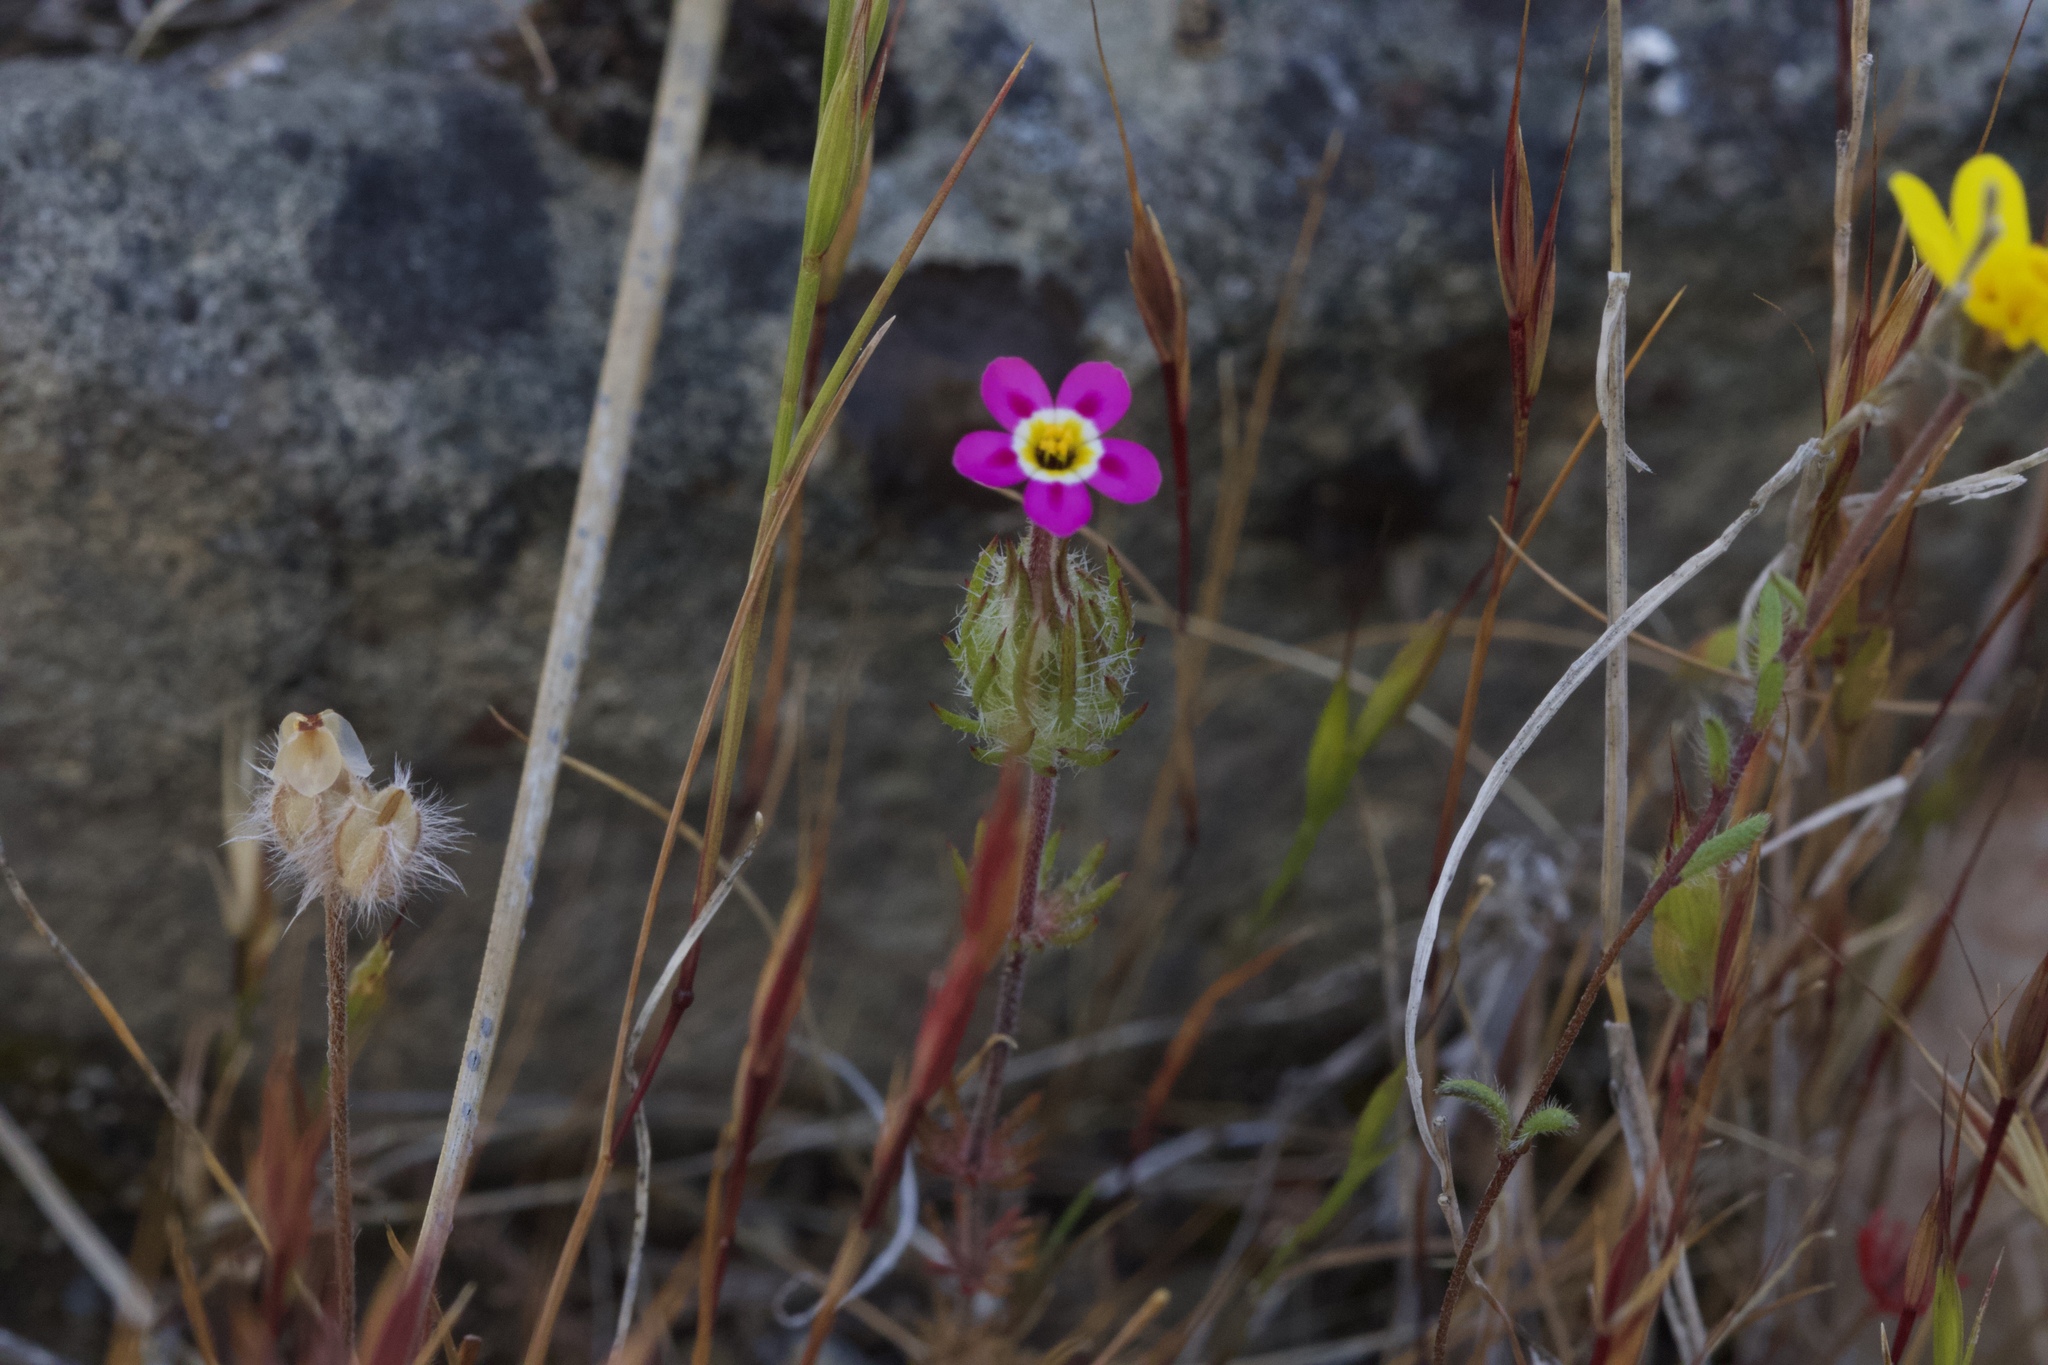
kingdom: Plantae
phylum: Tracheophyta
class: Magnoliopsida
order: Ericales
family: Polemoniaceae
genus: Leptosiphon
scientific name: Leptosiphon ciliatus
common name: Whiskerbrush
